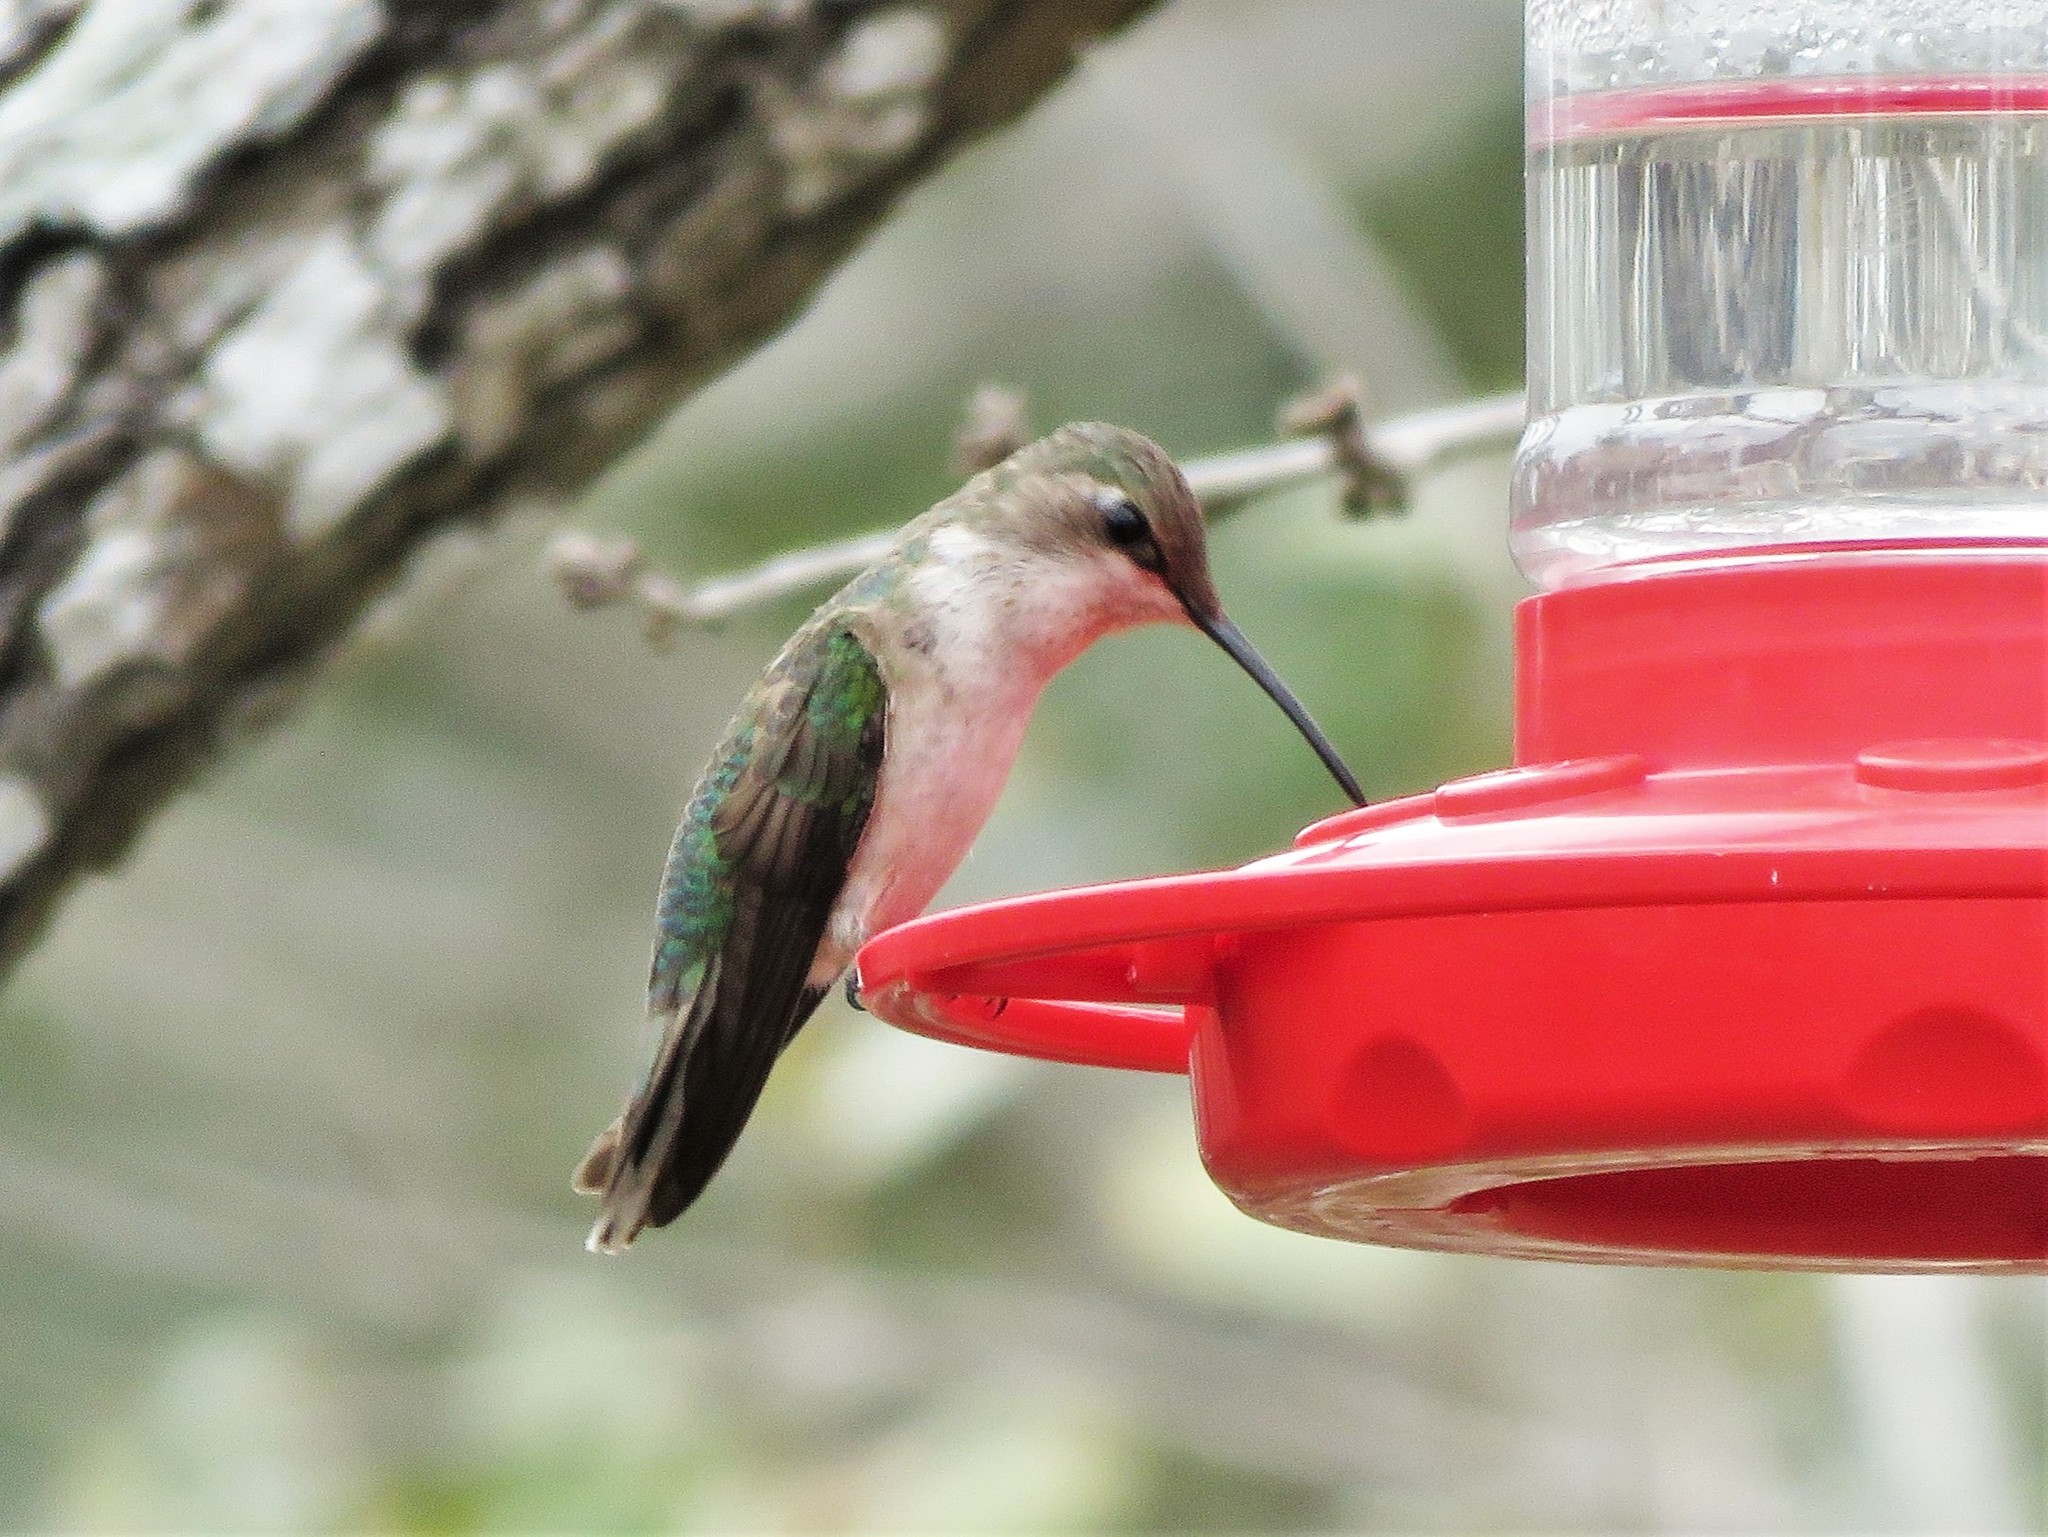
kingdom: Animalia
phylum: Chordata
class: Aves
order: Apodiformes
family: Trochilidae
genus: Archilochus
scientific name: Archilochus colubris
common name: Ruby-throated hummingbird
